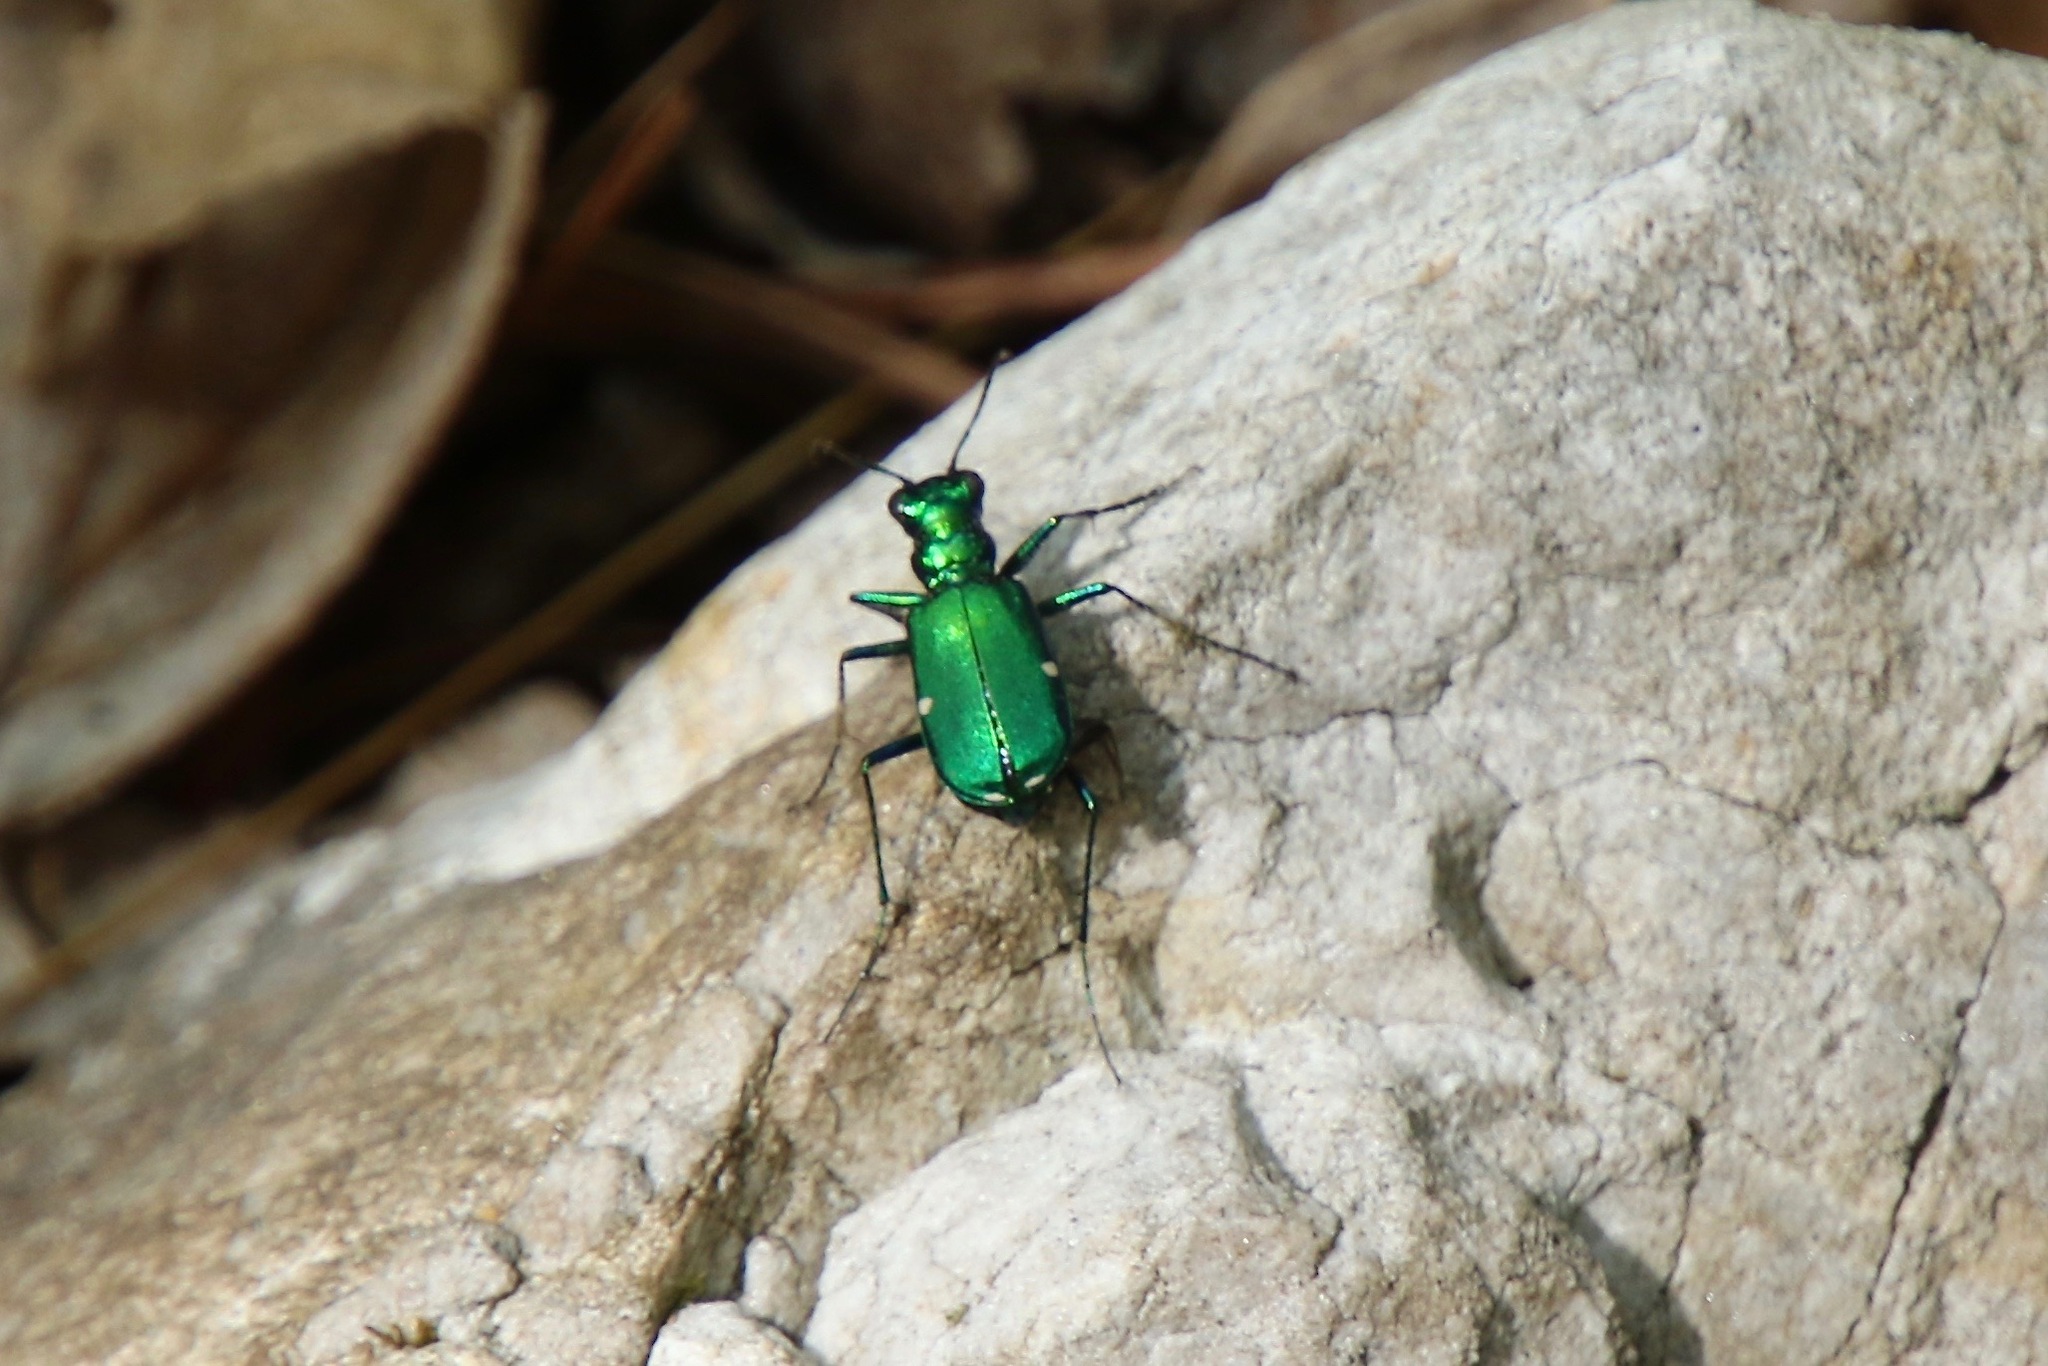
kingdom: Animalia
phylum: Arthropoda
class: Insecta
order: Coleoptera
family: Carabidae
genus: Cicindela
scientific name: Cicindela sexguttata
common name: Six-spotted tiger beetle
